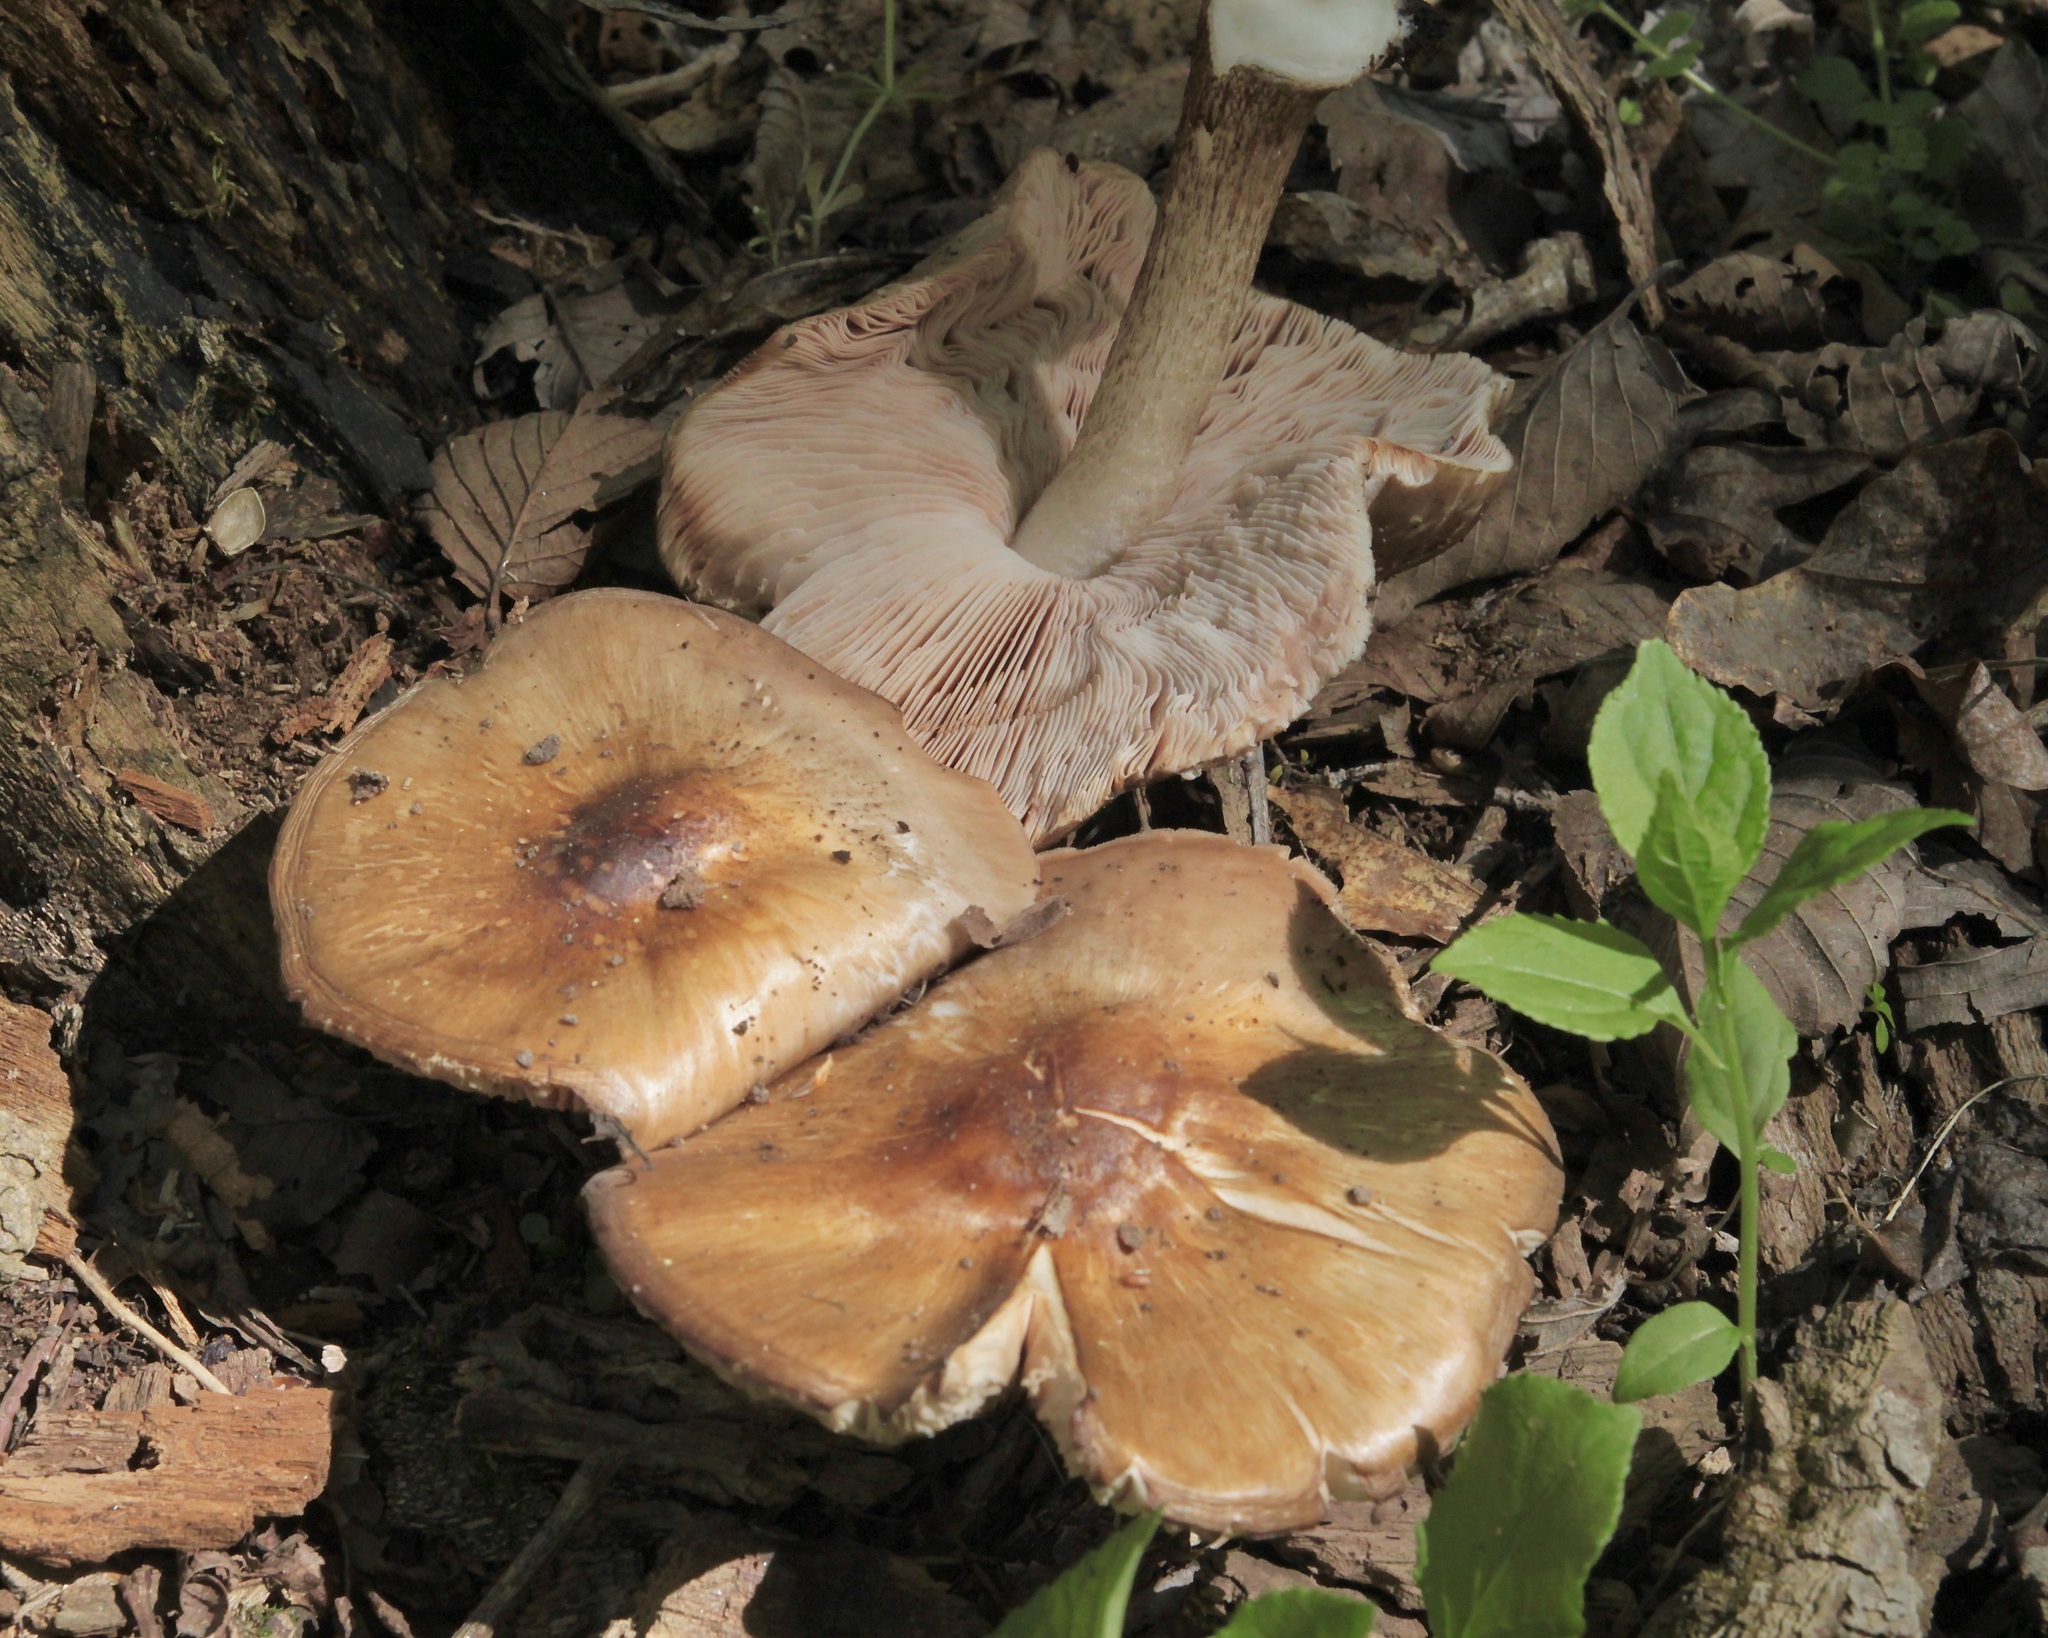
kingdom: Fungi
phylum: Basidiomycota
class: Agaricomycetes
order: Agaricales
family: Pluteaceae
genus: Pluteus
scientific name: Pluteus cervinus
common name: Deer shield
